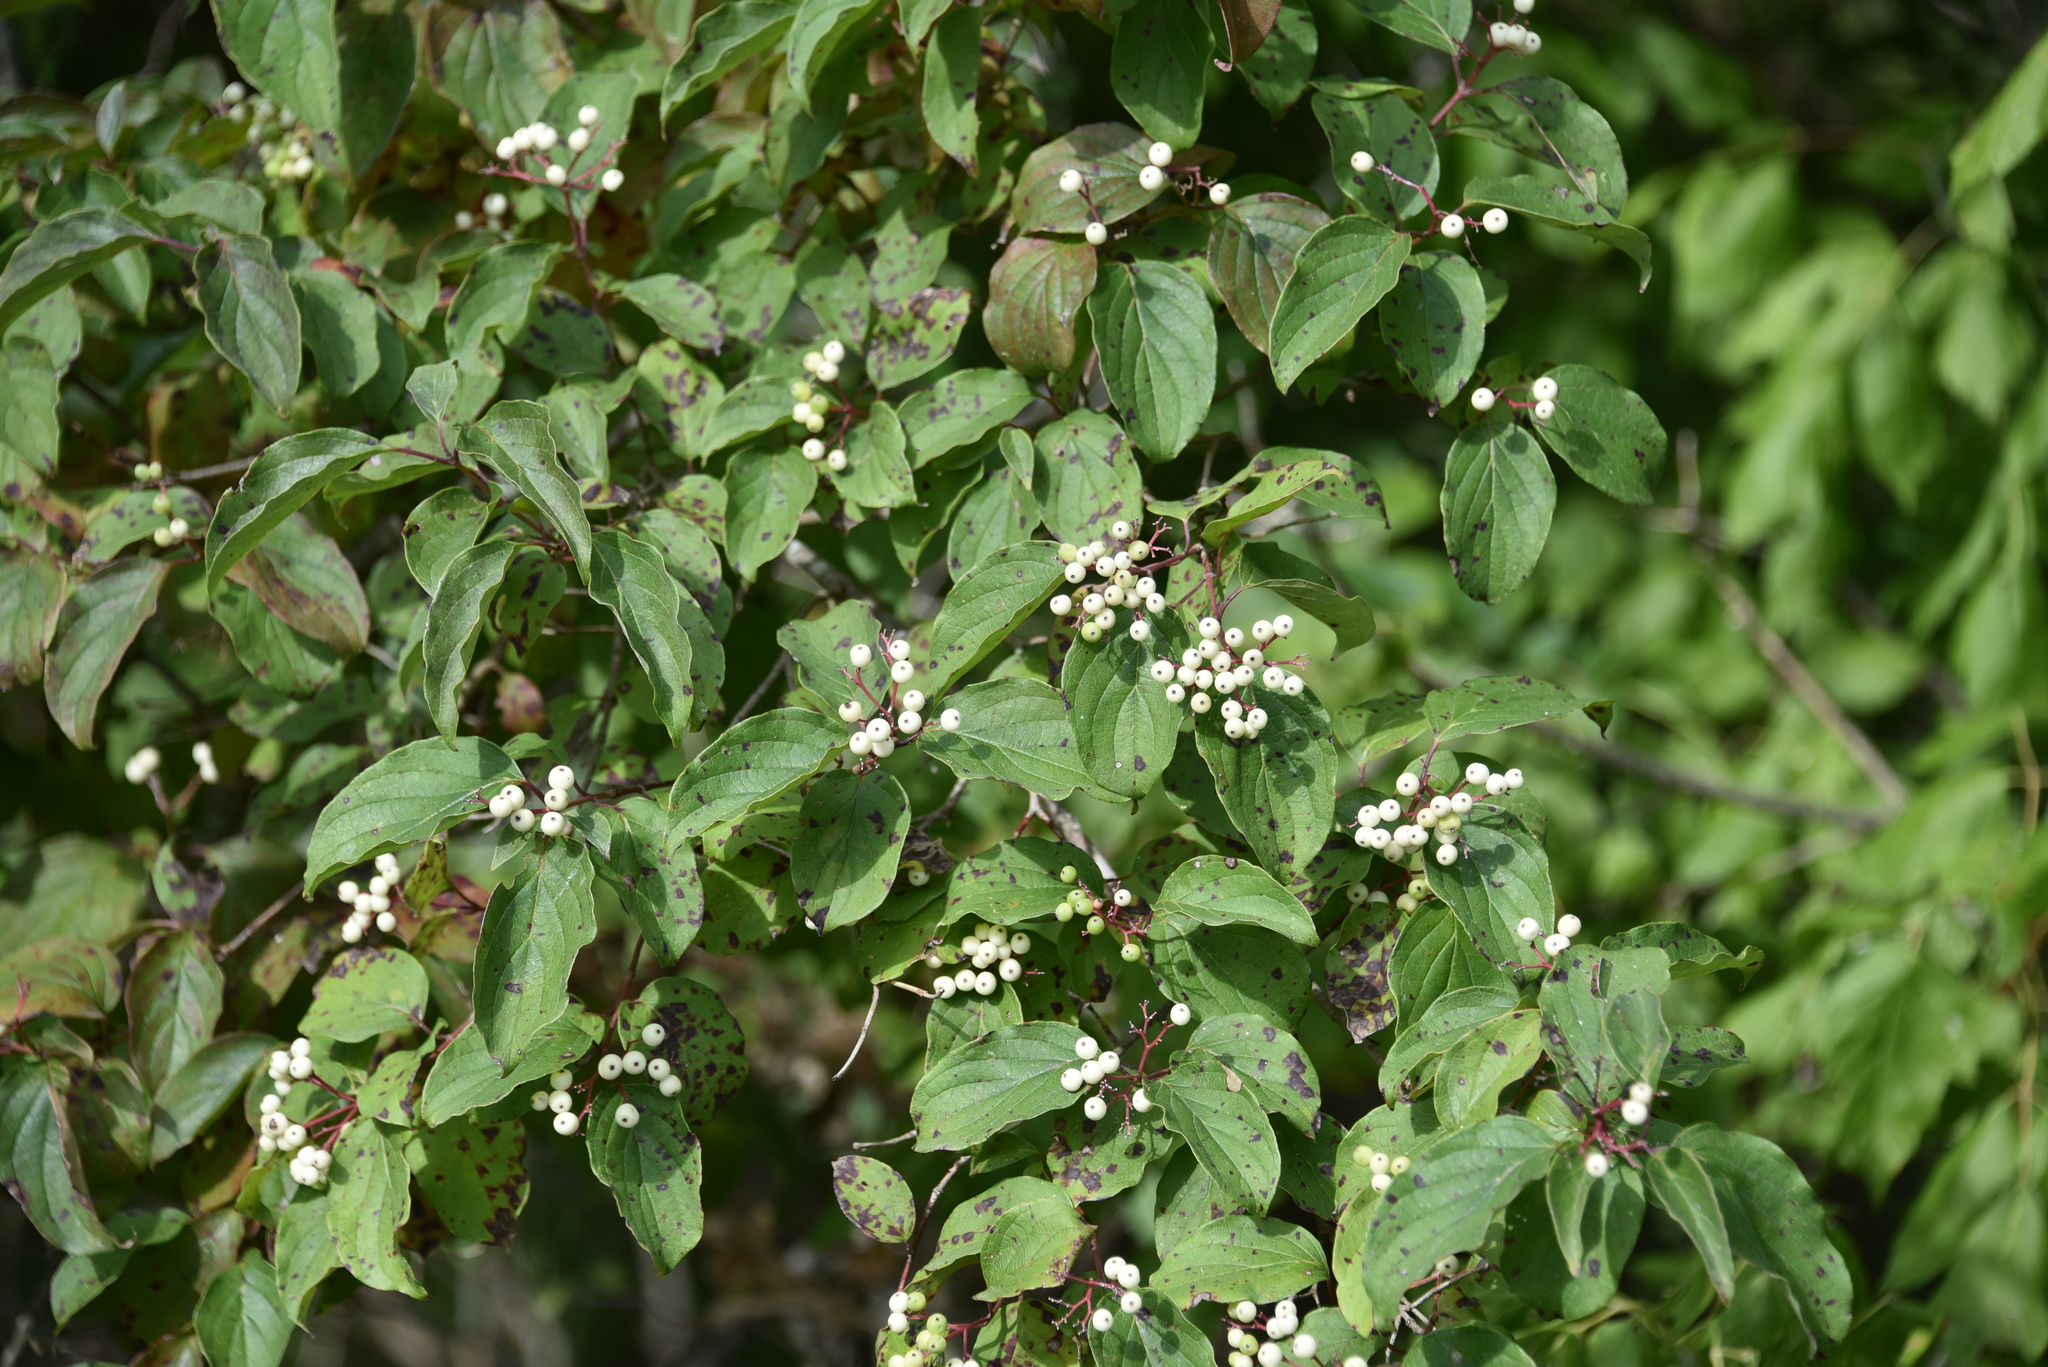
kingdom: Plantae
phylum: Tracheophyta
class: Magnoliopsida
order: Cornales
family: Cornaceae
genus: Cornus
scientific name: Cornus drummondii
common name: Rough-leaf dogwood
